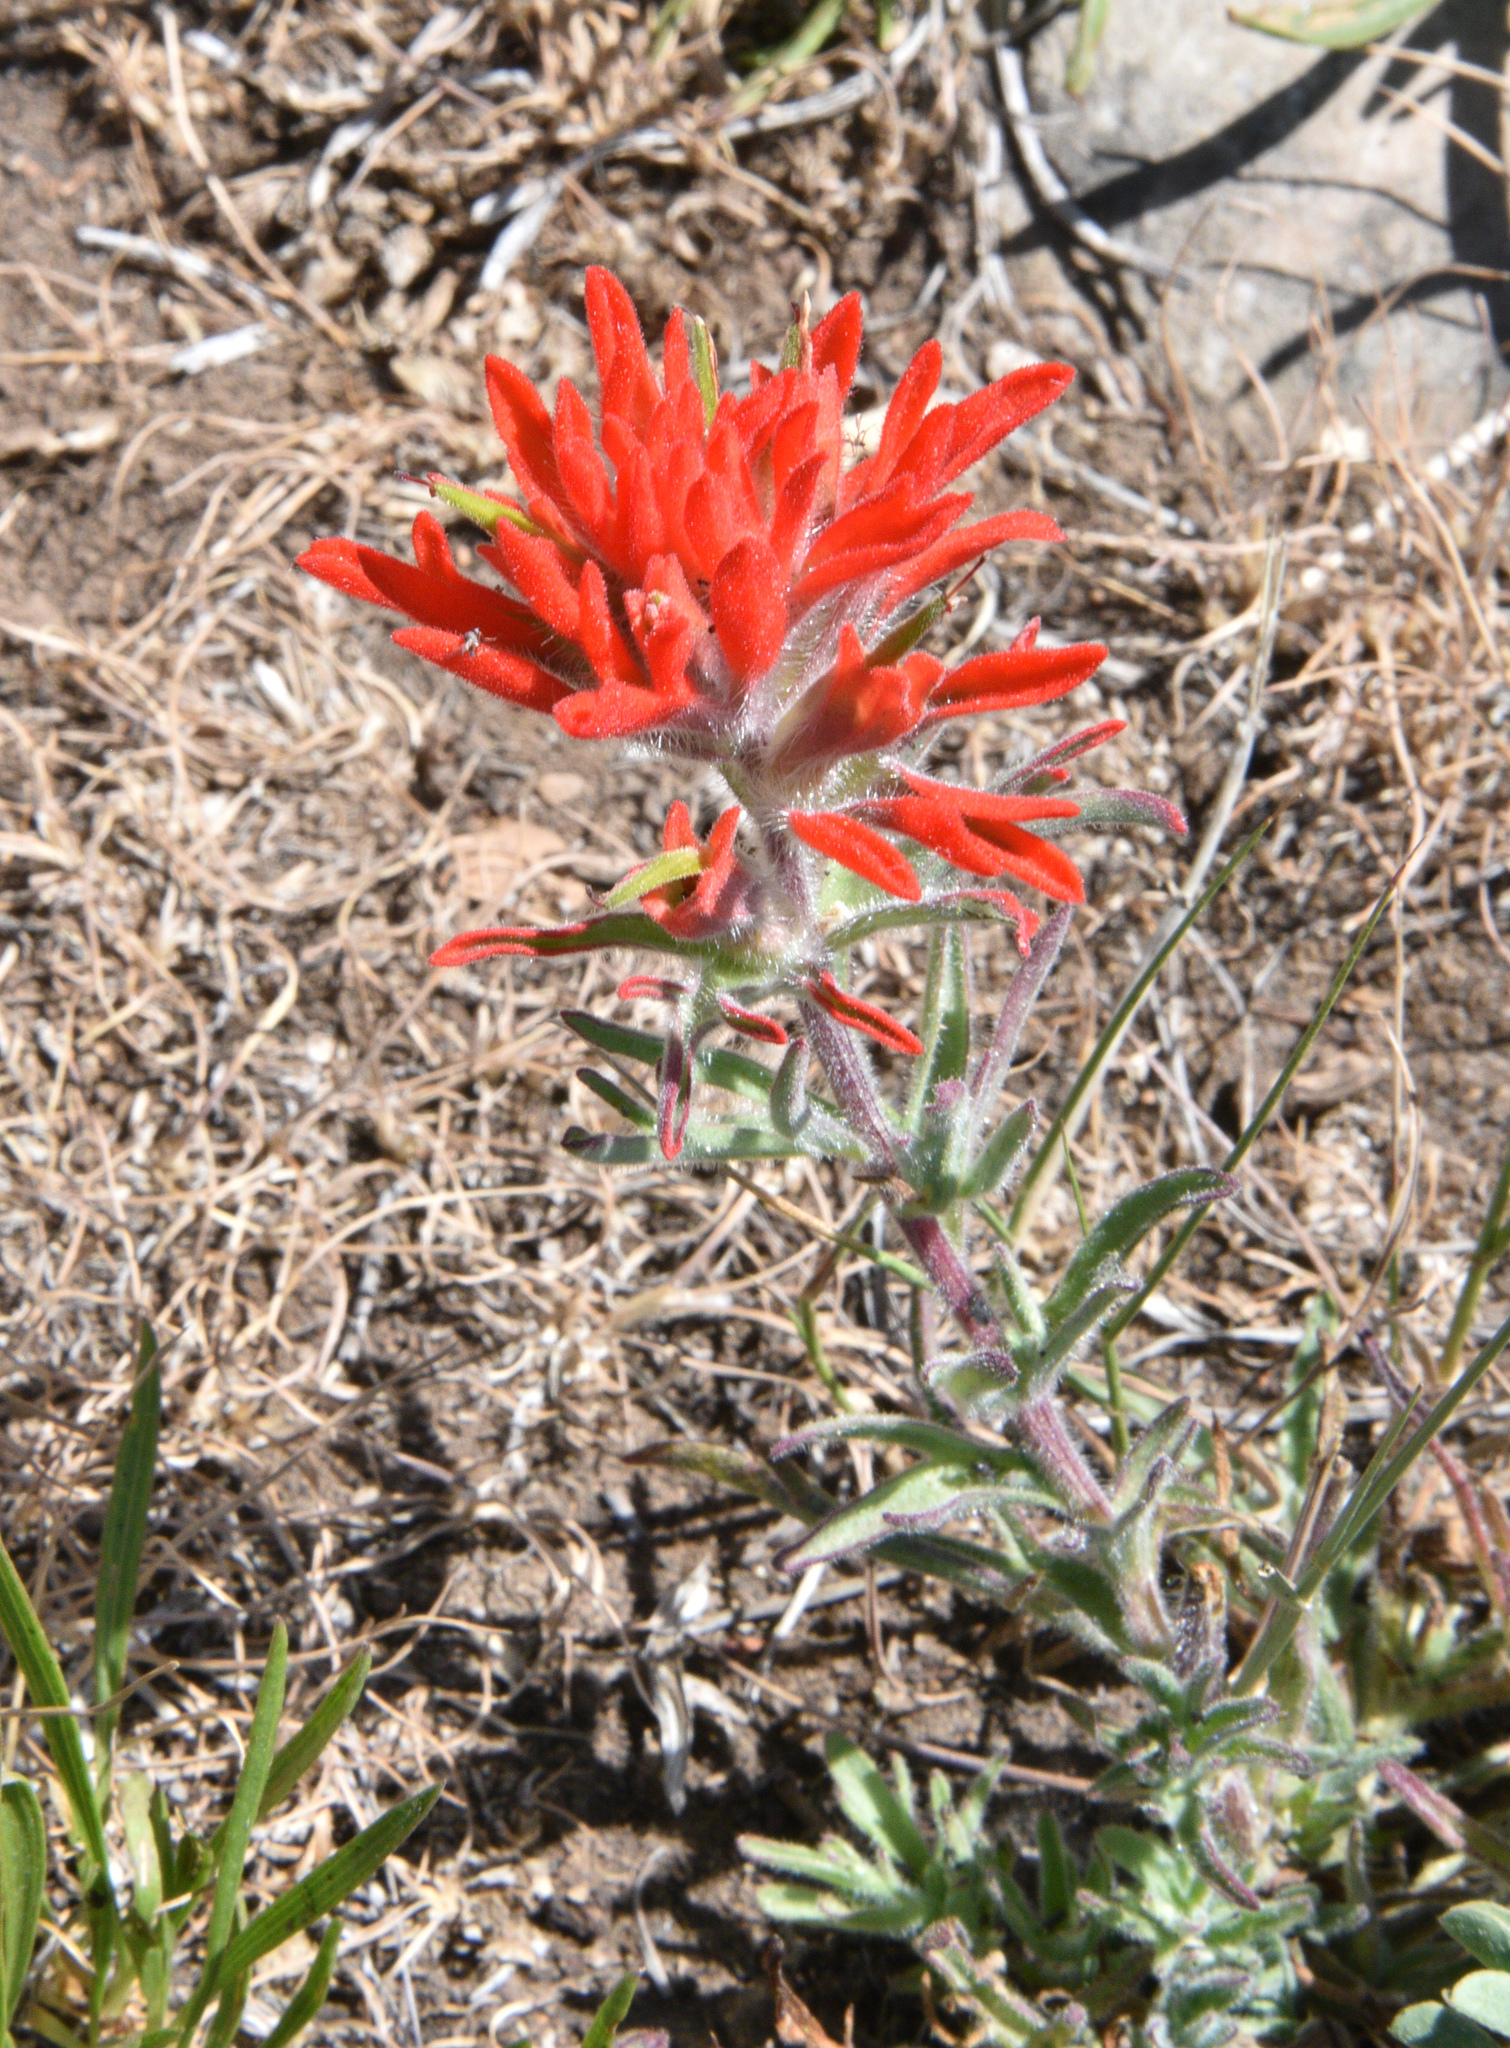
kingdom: Plantae
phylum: Tracheophyta
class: Magnoliopsida
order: Lamiales
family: Orobanchaceae
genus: Castilleja
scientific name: Castilleja chromosa
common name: Desert paintbrush
